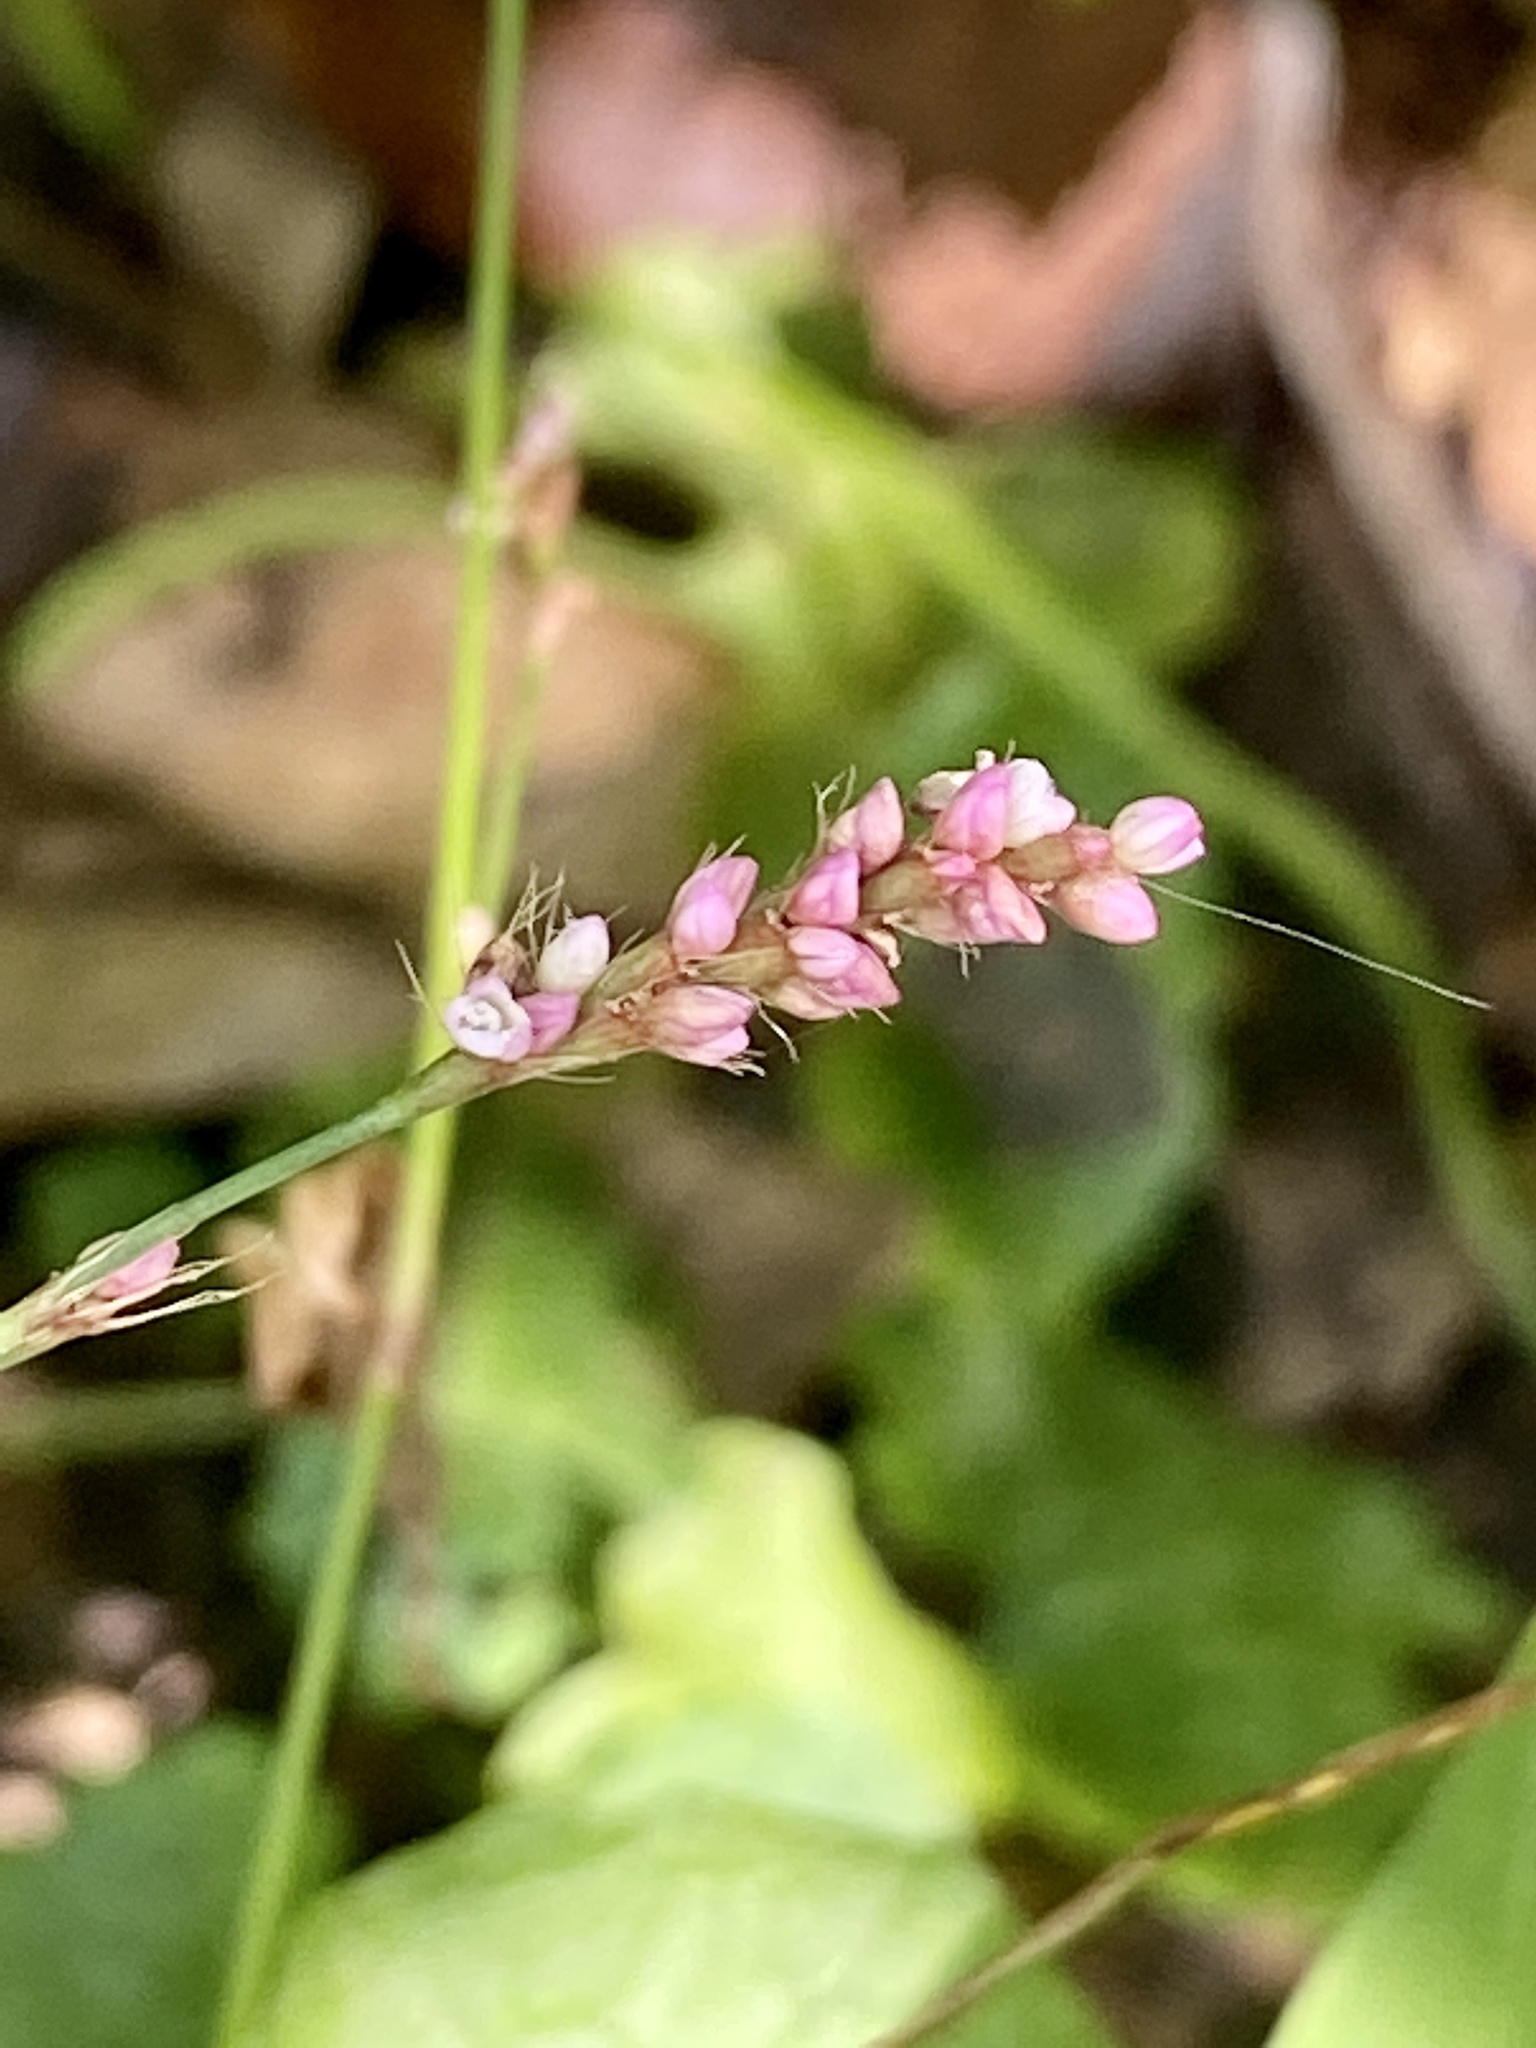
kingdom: Plantae
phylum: Tracheophyta
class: Magnoliopsida
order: Caryophyllales
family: Polygonaceae
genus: Persicaria
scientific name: Persicaria longiseta
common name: Bristly lady's-thumb
